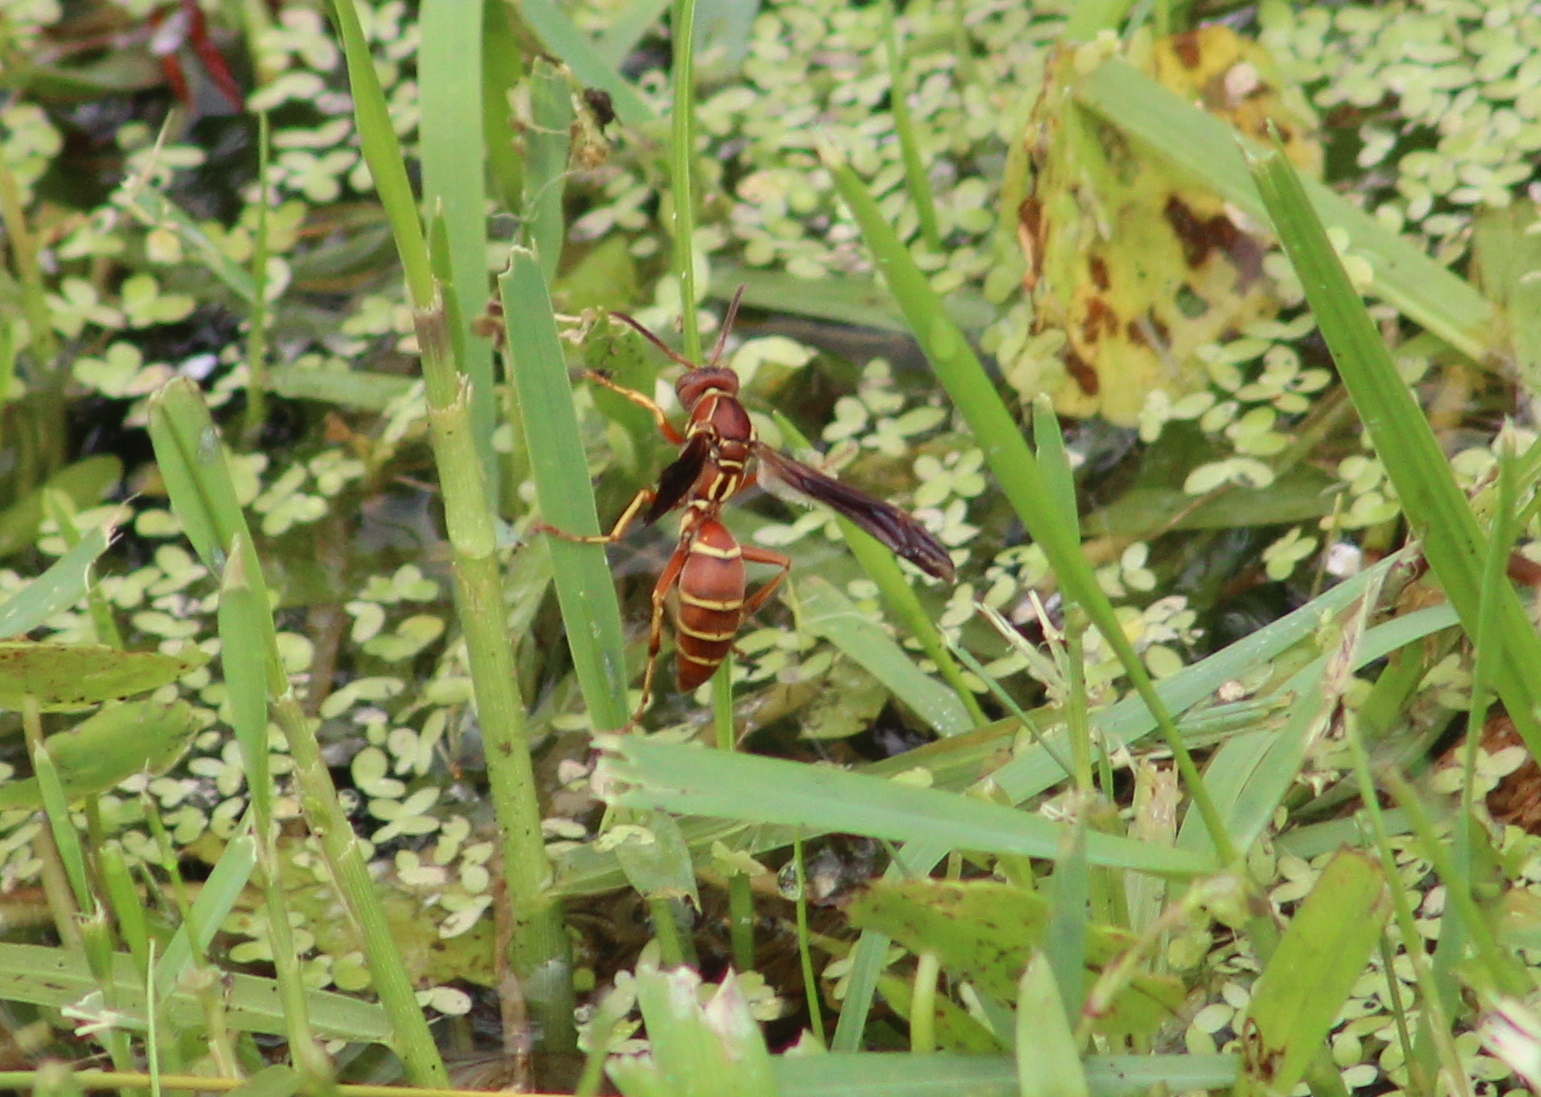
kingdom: Animalia
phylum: Arthropoda
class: Insecta
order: Hymenoptera
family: Eumenidae
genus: Polistes
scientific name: Polistes bellicosus
